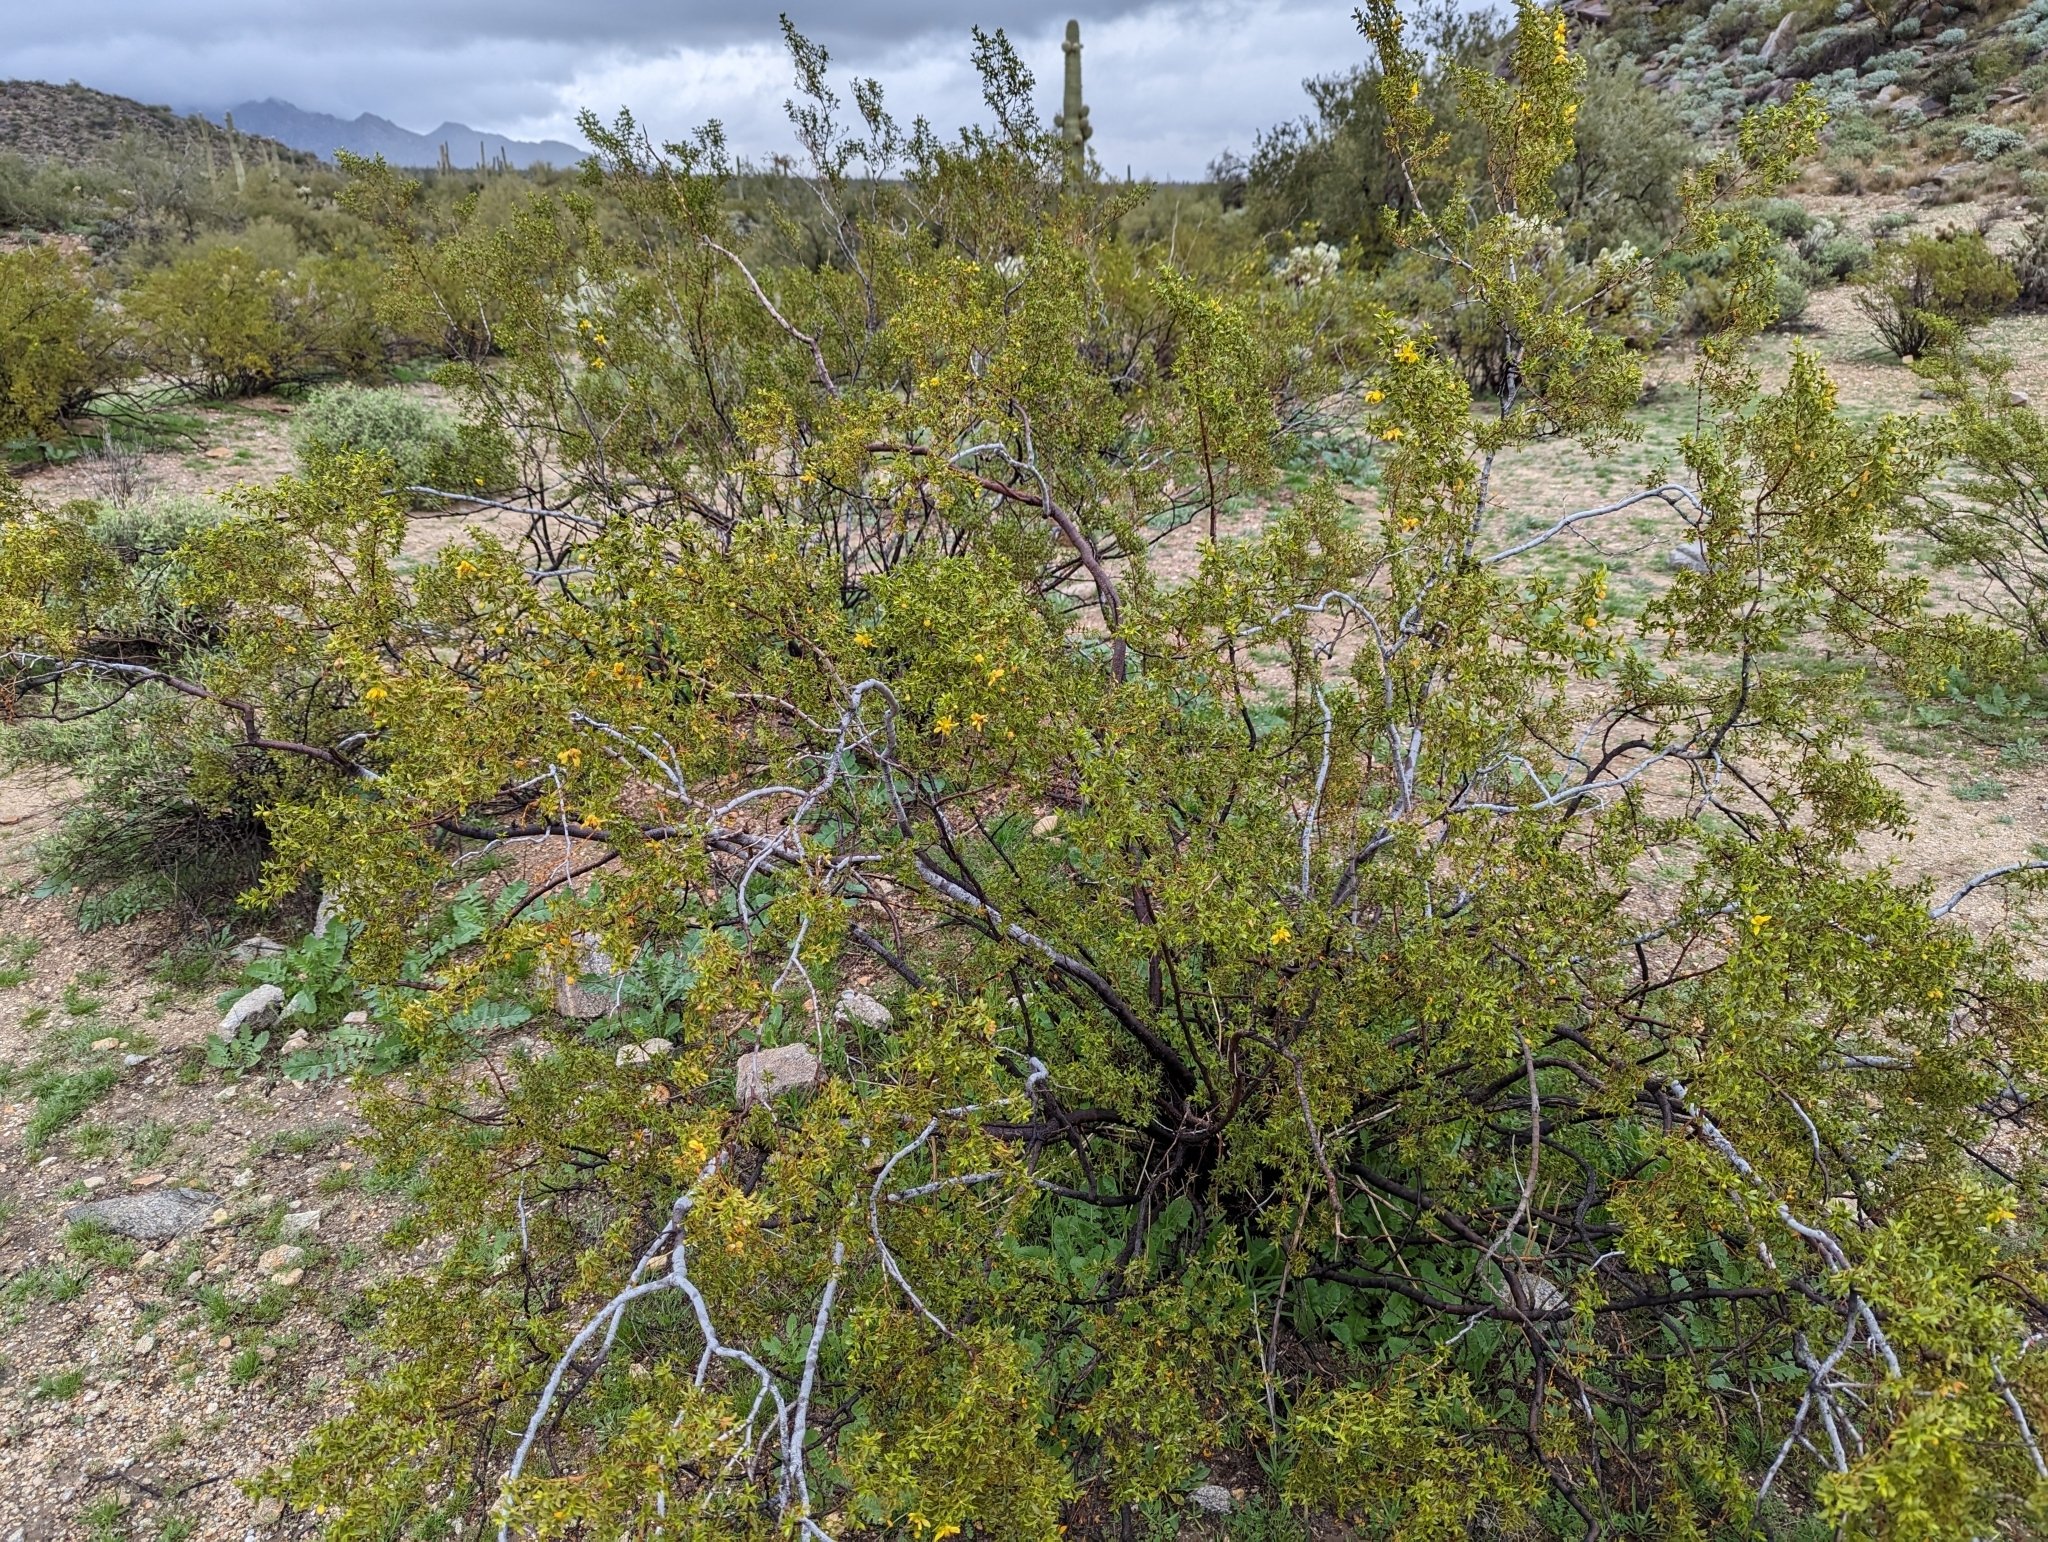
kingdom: Plantae
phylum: Tracheophyta
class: Magnoliopsida
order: Zygophyllales
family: Zygophyllaceae
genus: Larrea
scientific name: Larrea tridentata
